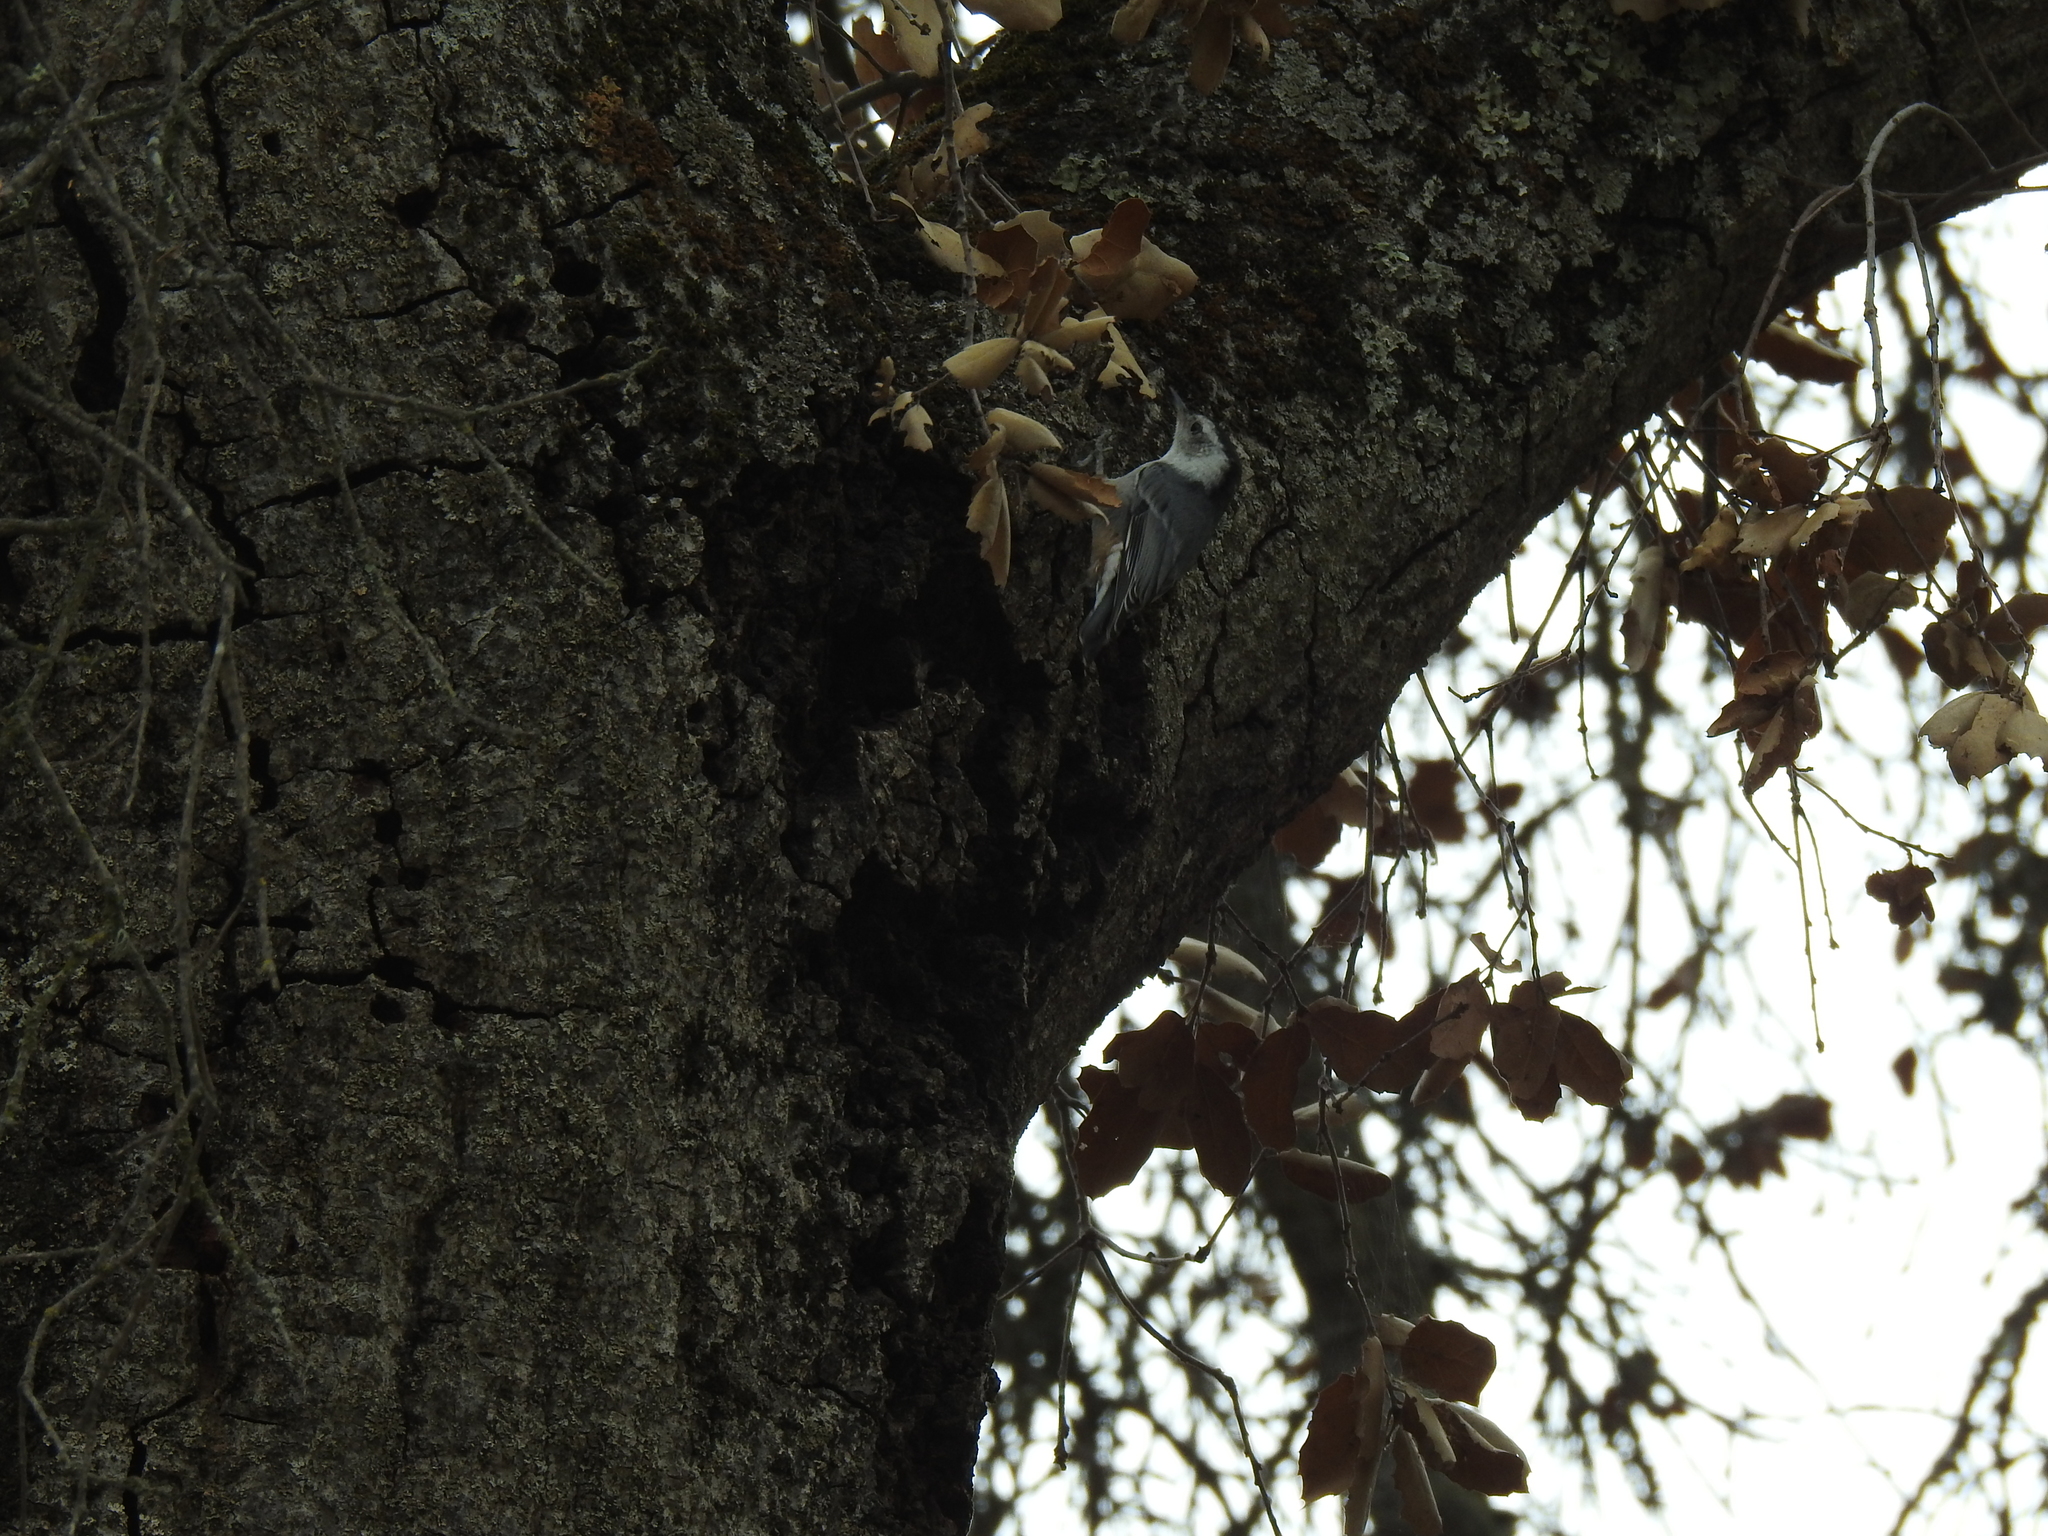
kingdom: Animalia
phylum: Chordata
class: Aves
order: Passeriformes
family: Sittidae
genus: Sitta
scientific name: Sitta carolinensis
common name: White-breasted nuthatch
